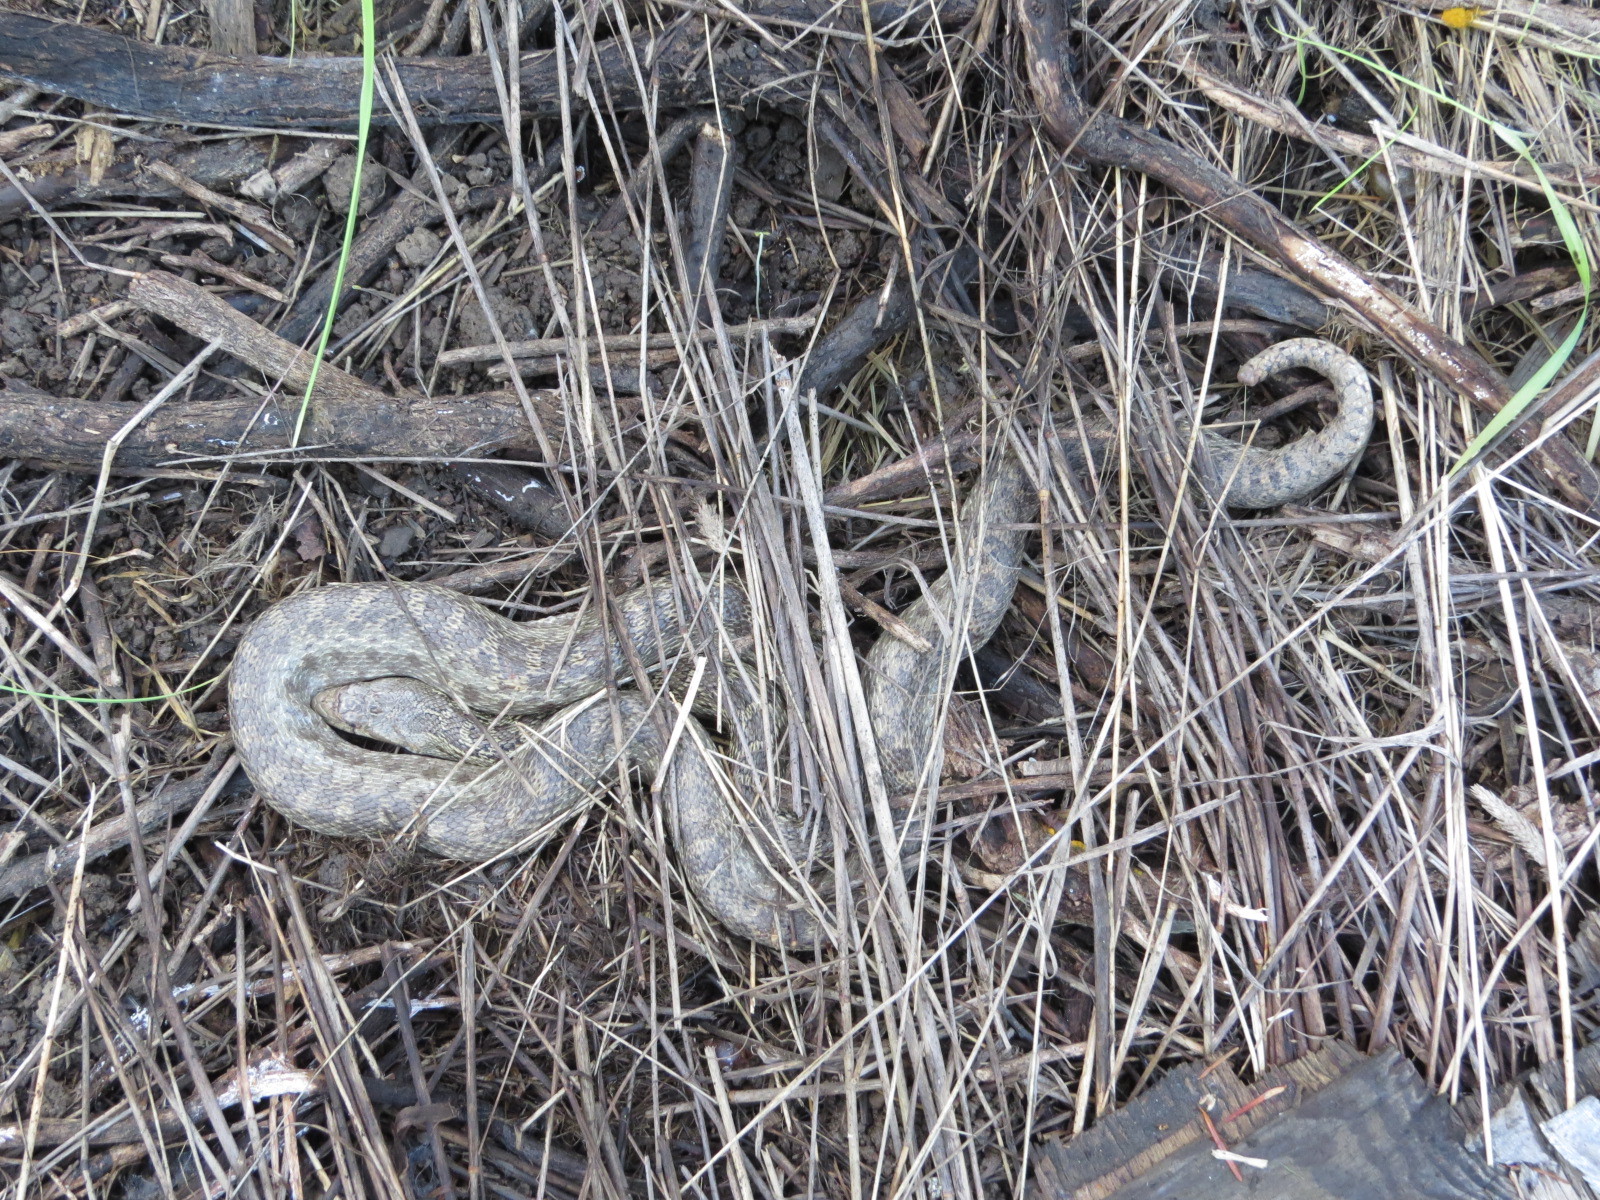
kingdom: Animalia
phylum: Chordata
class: Squamata
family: Colubridae
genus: Pituophis
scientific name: Pituophis catenifer
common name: Gopher snake
